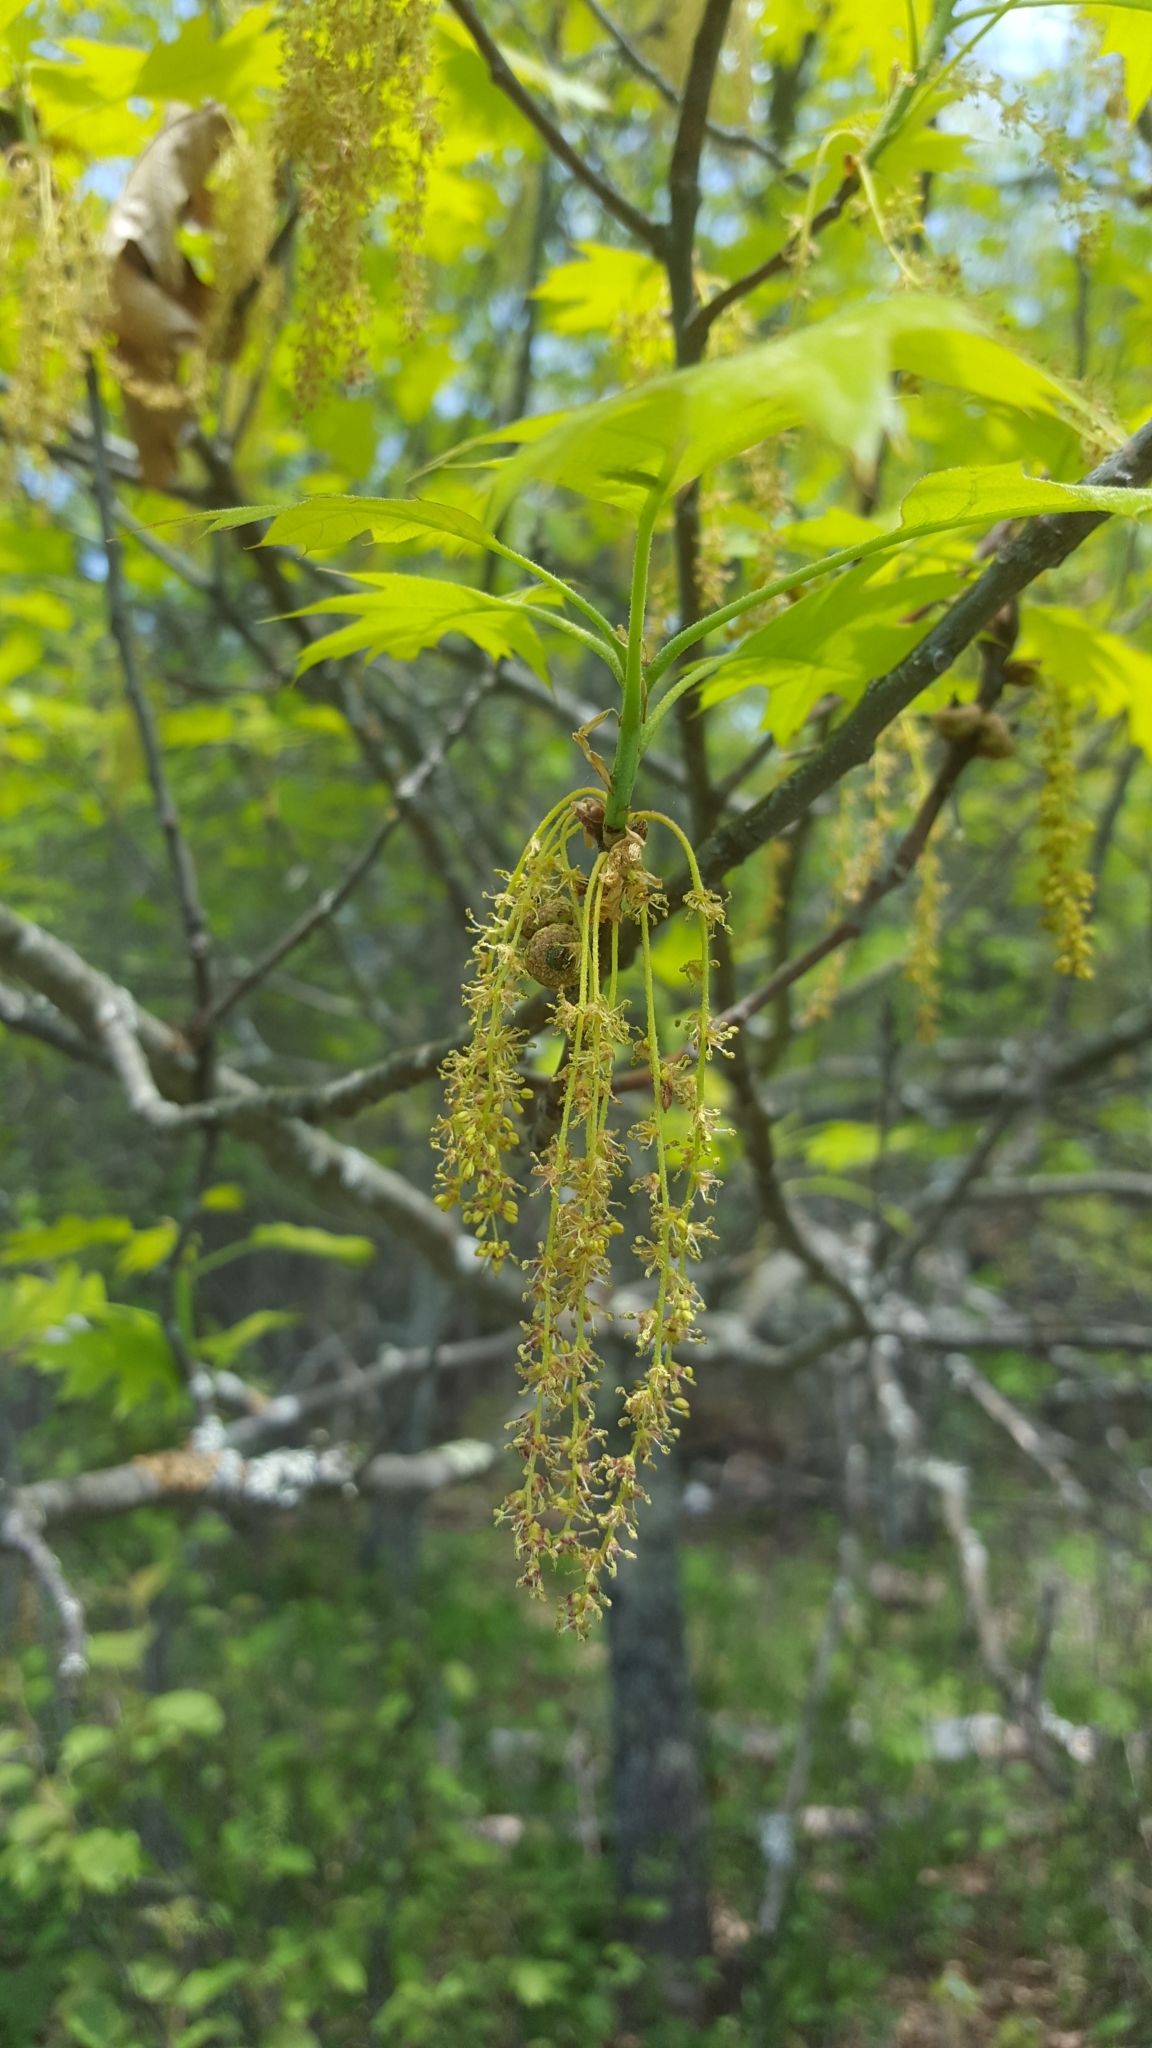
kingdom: Plantae
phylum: Tracheophyta
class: Magnoliopsida
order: Fagales
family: Fagaceae
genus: Quercus
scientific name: Quercus rubra
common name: Red oak
